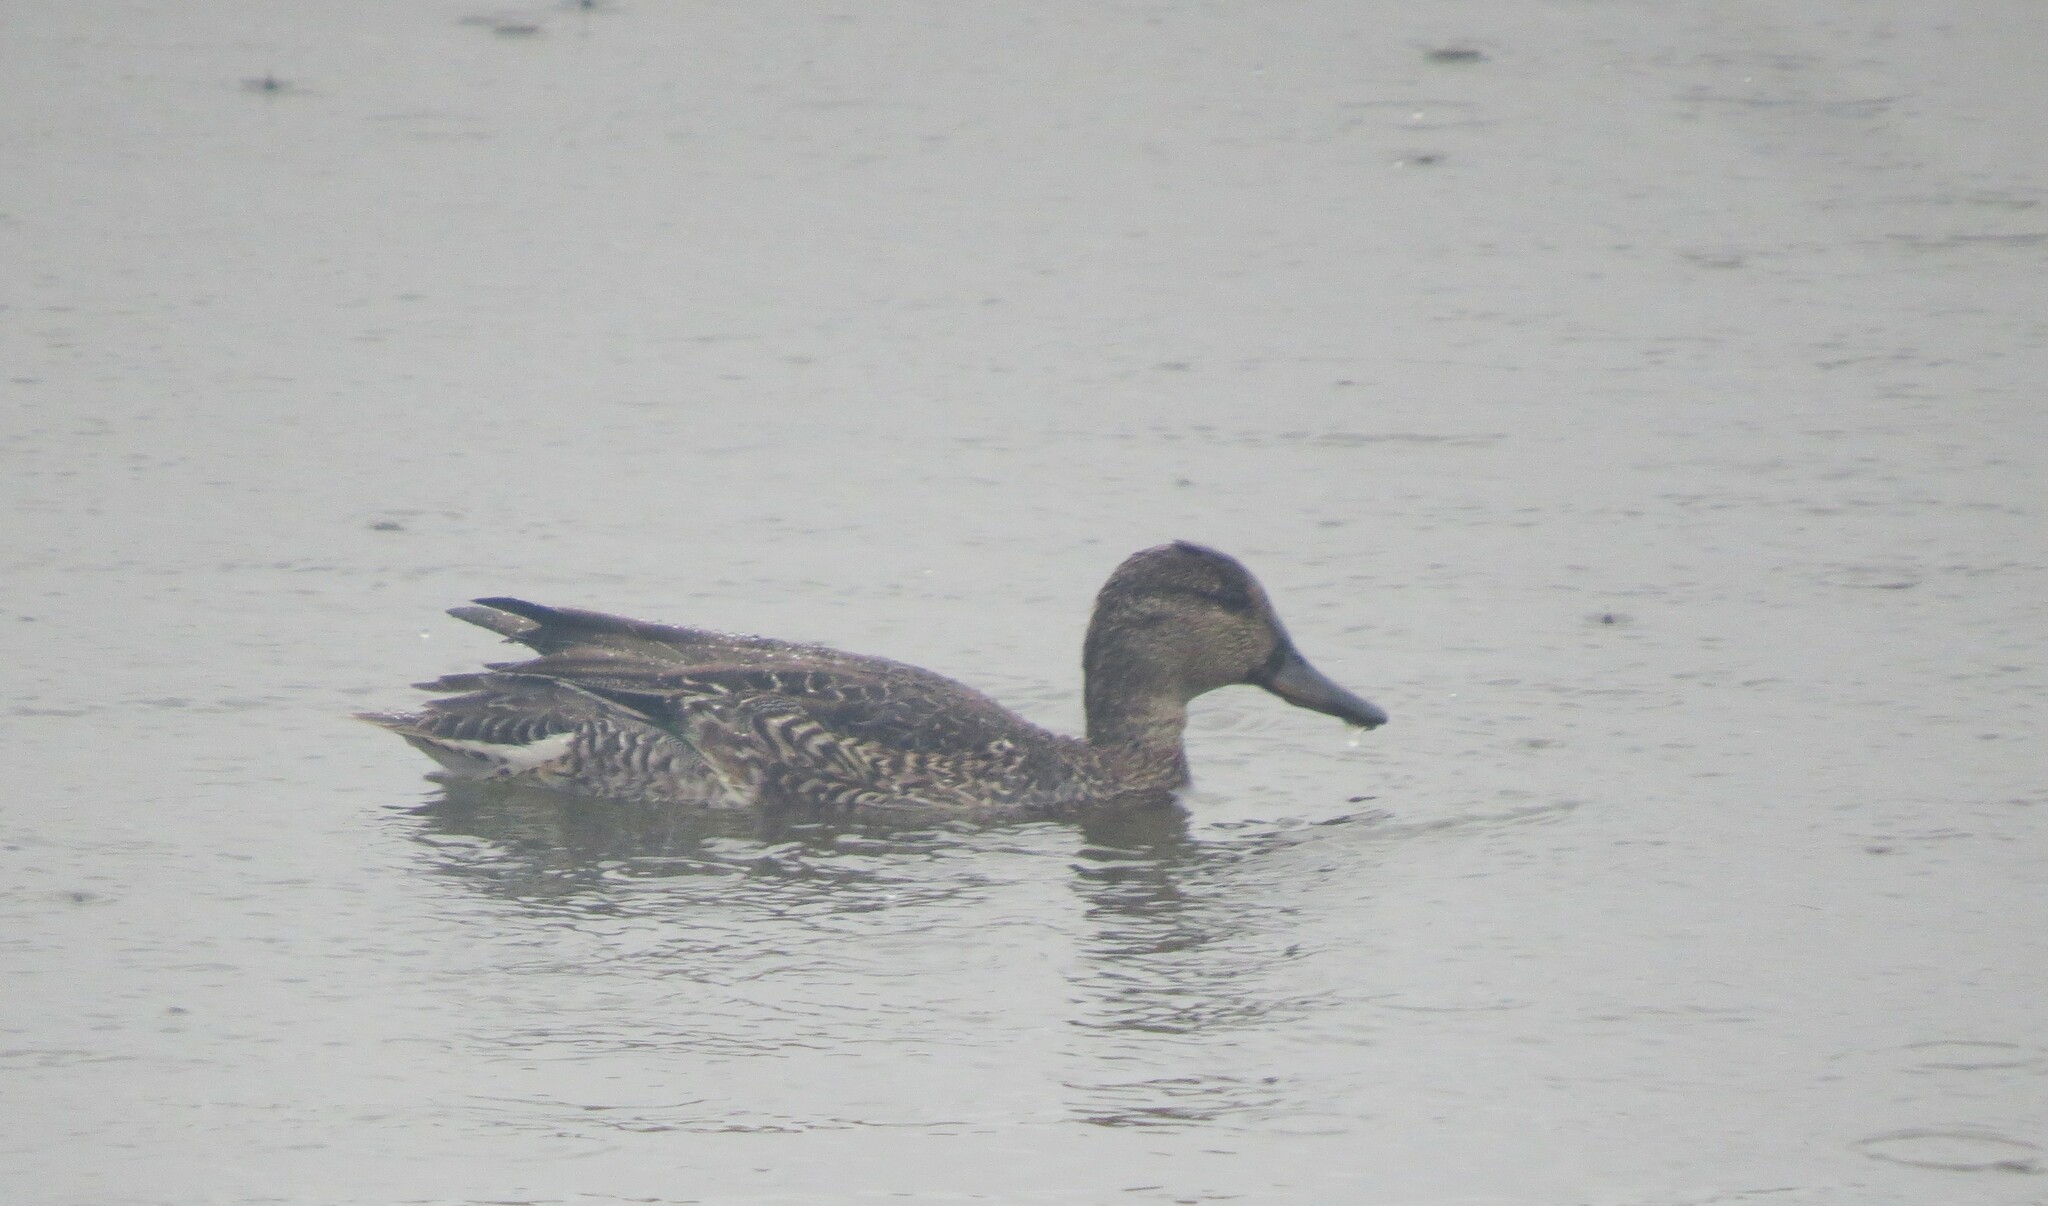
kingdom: Animalia
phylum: Chordata
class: Aves
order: Anseriformes
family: Anatidae
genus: Anas
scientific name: Anas crecca
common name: Eurasian teal
